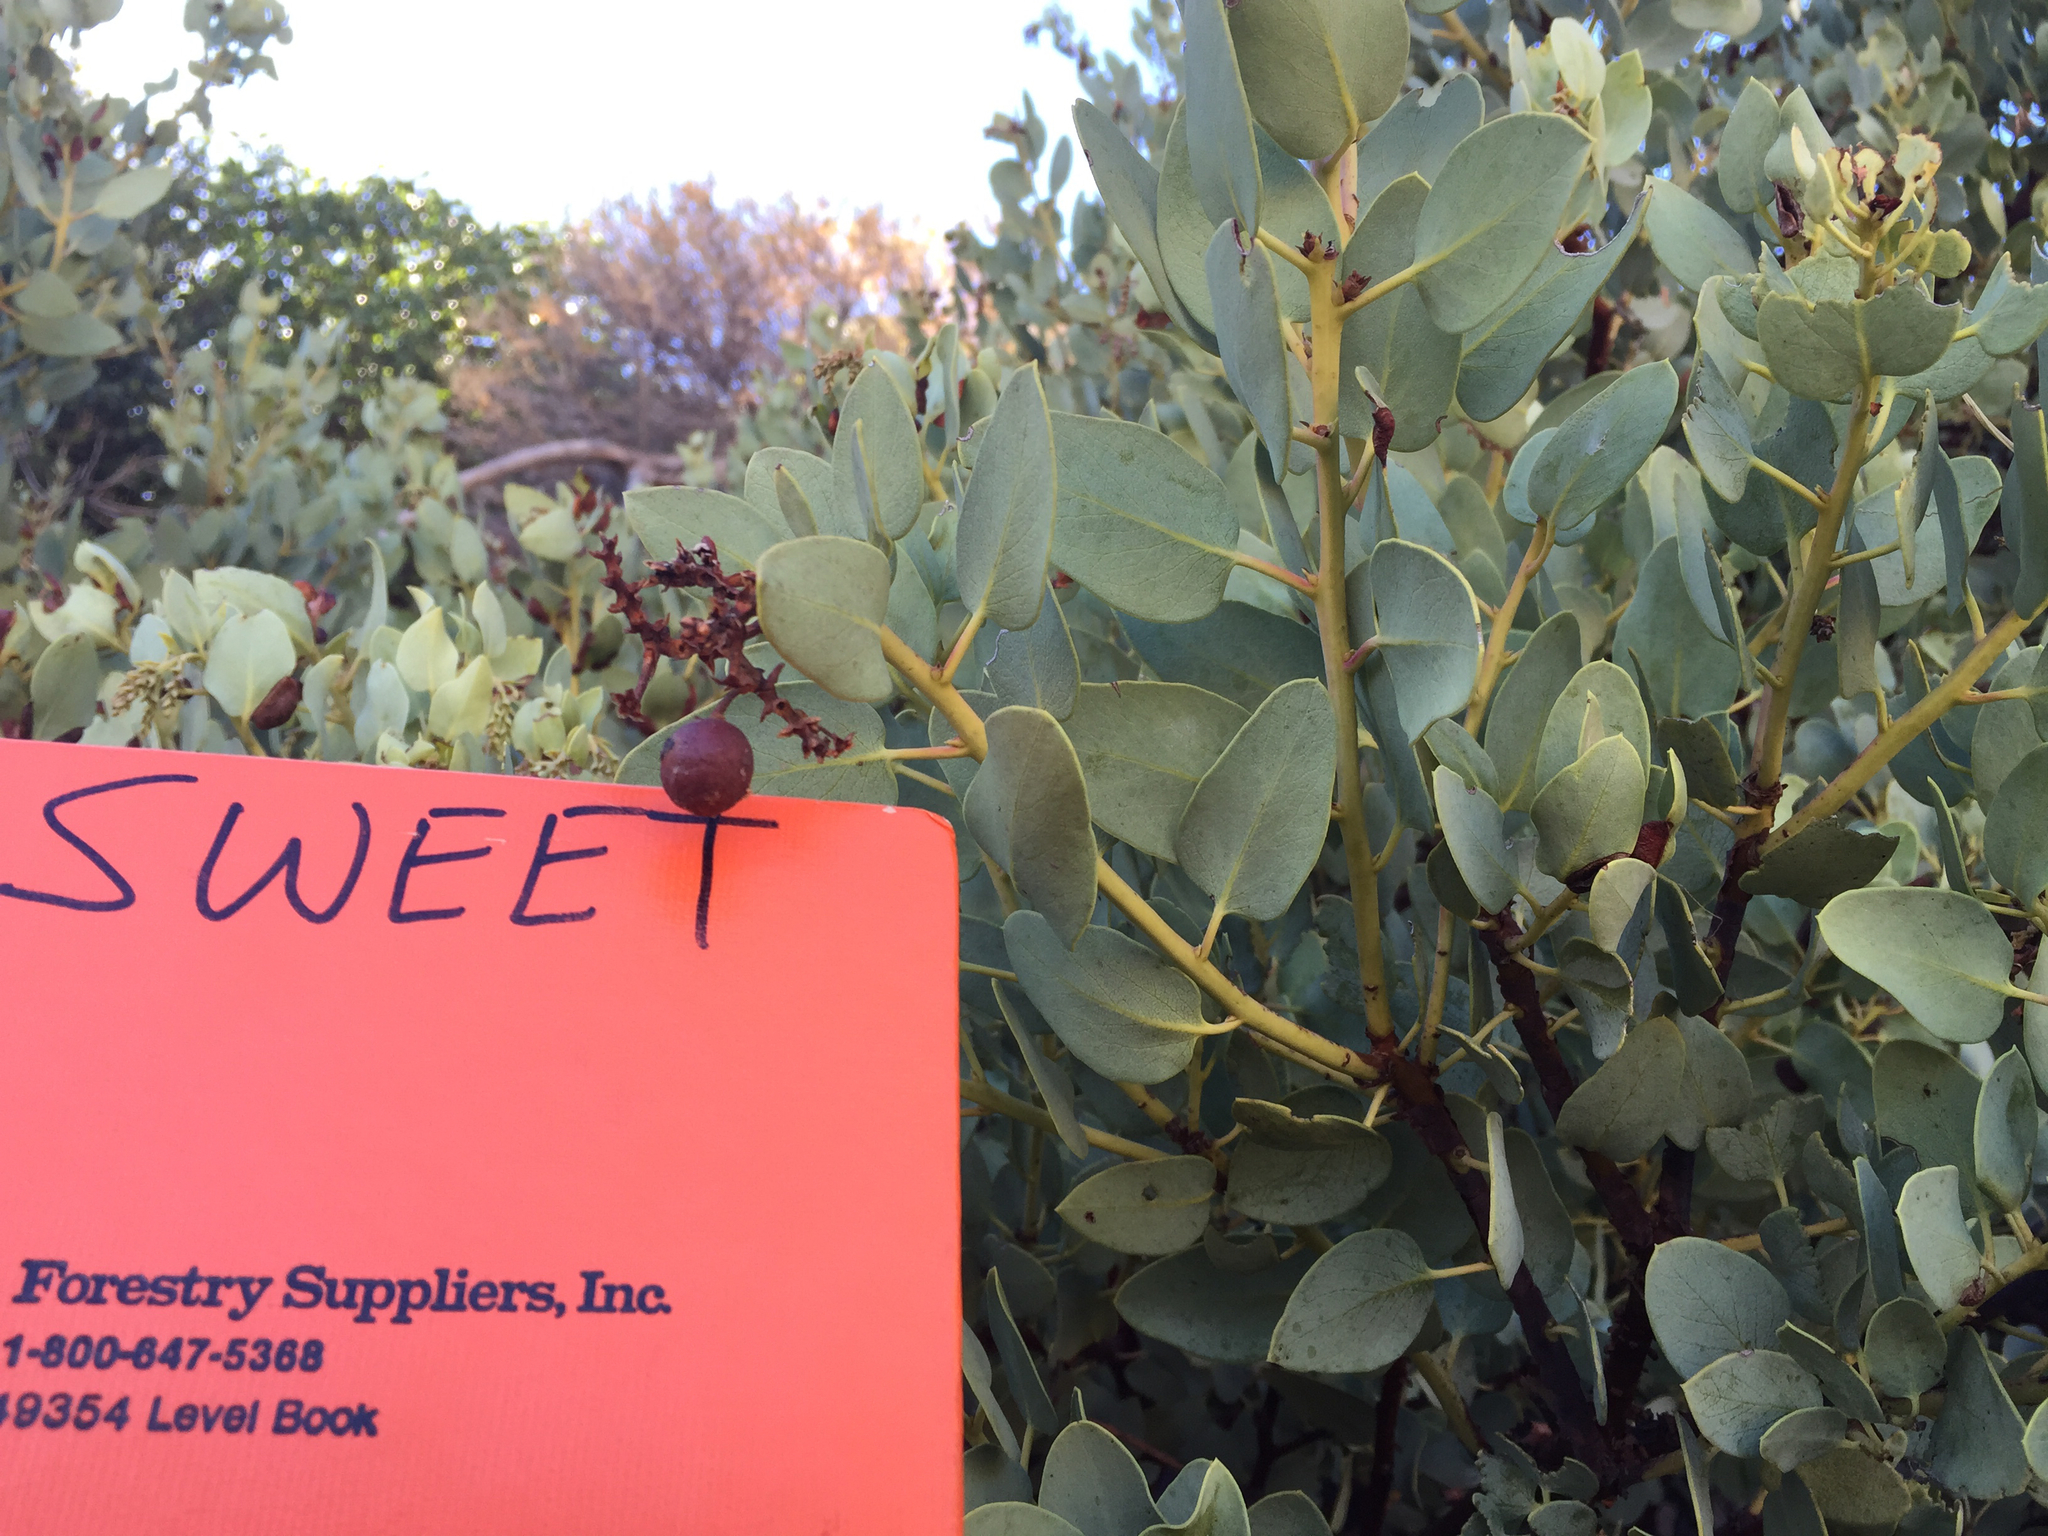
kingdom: Plantae
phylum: Tracheophyta
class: Magnoliopsida
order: Ericales
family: Ericaceae
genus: Arctostaphylos
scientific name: Arctostaphylos glauca
